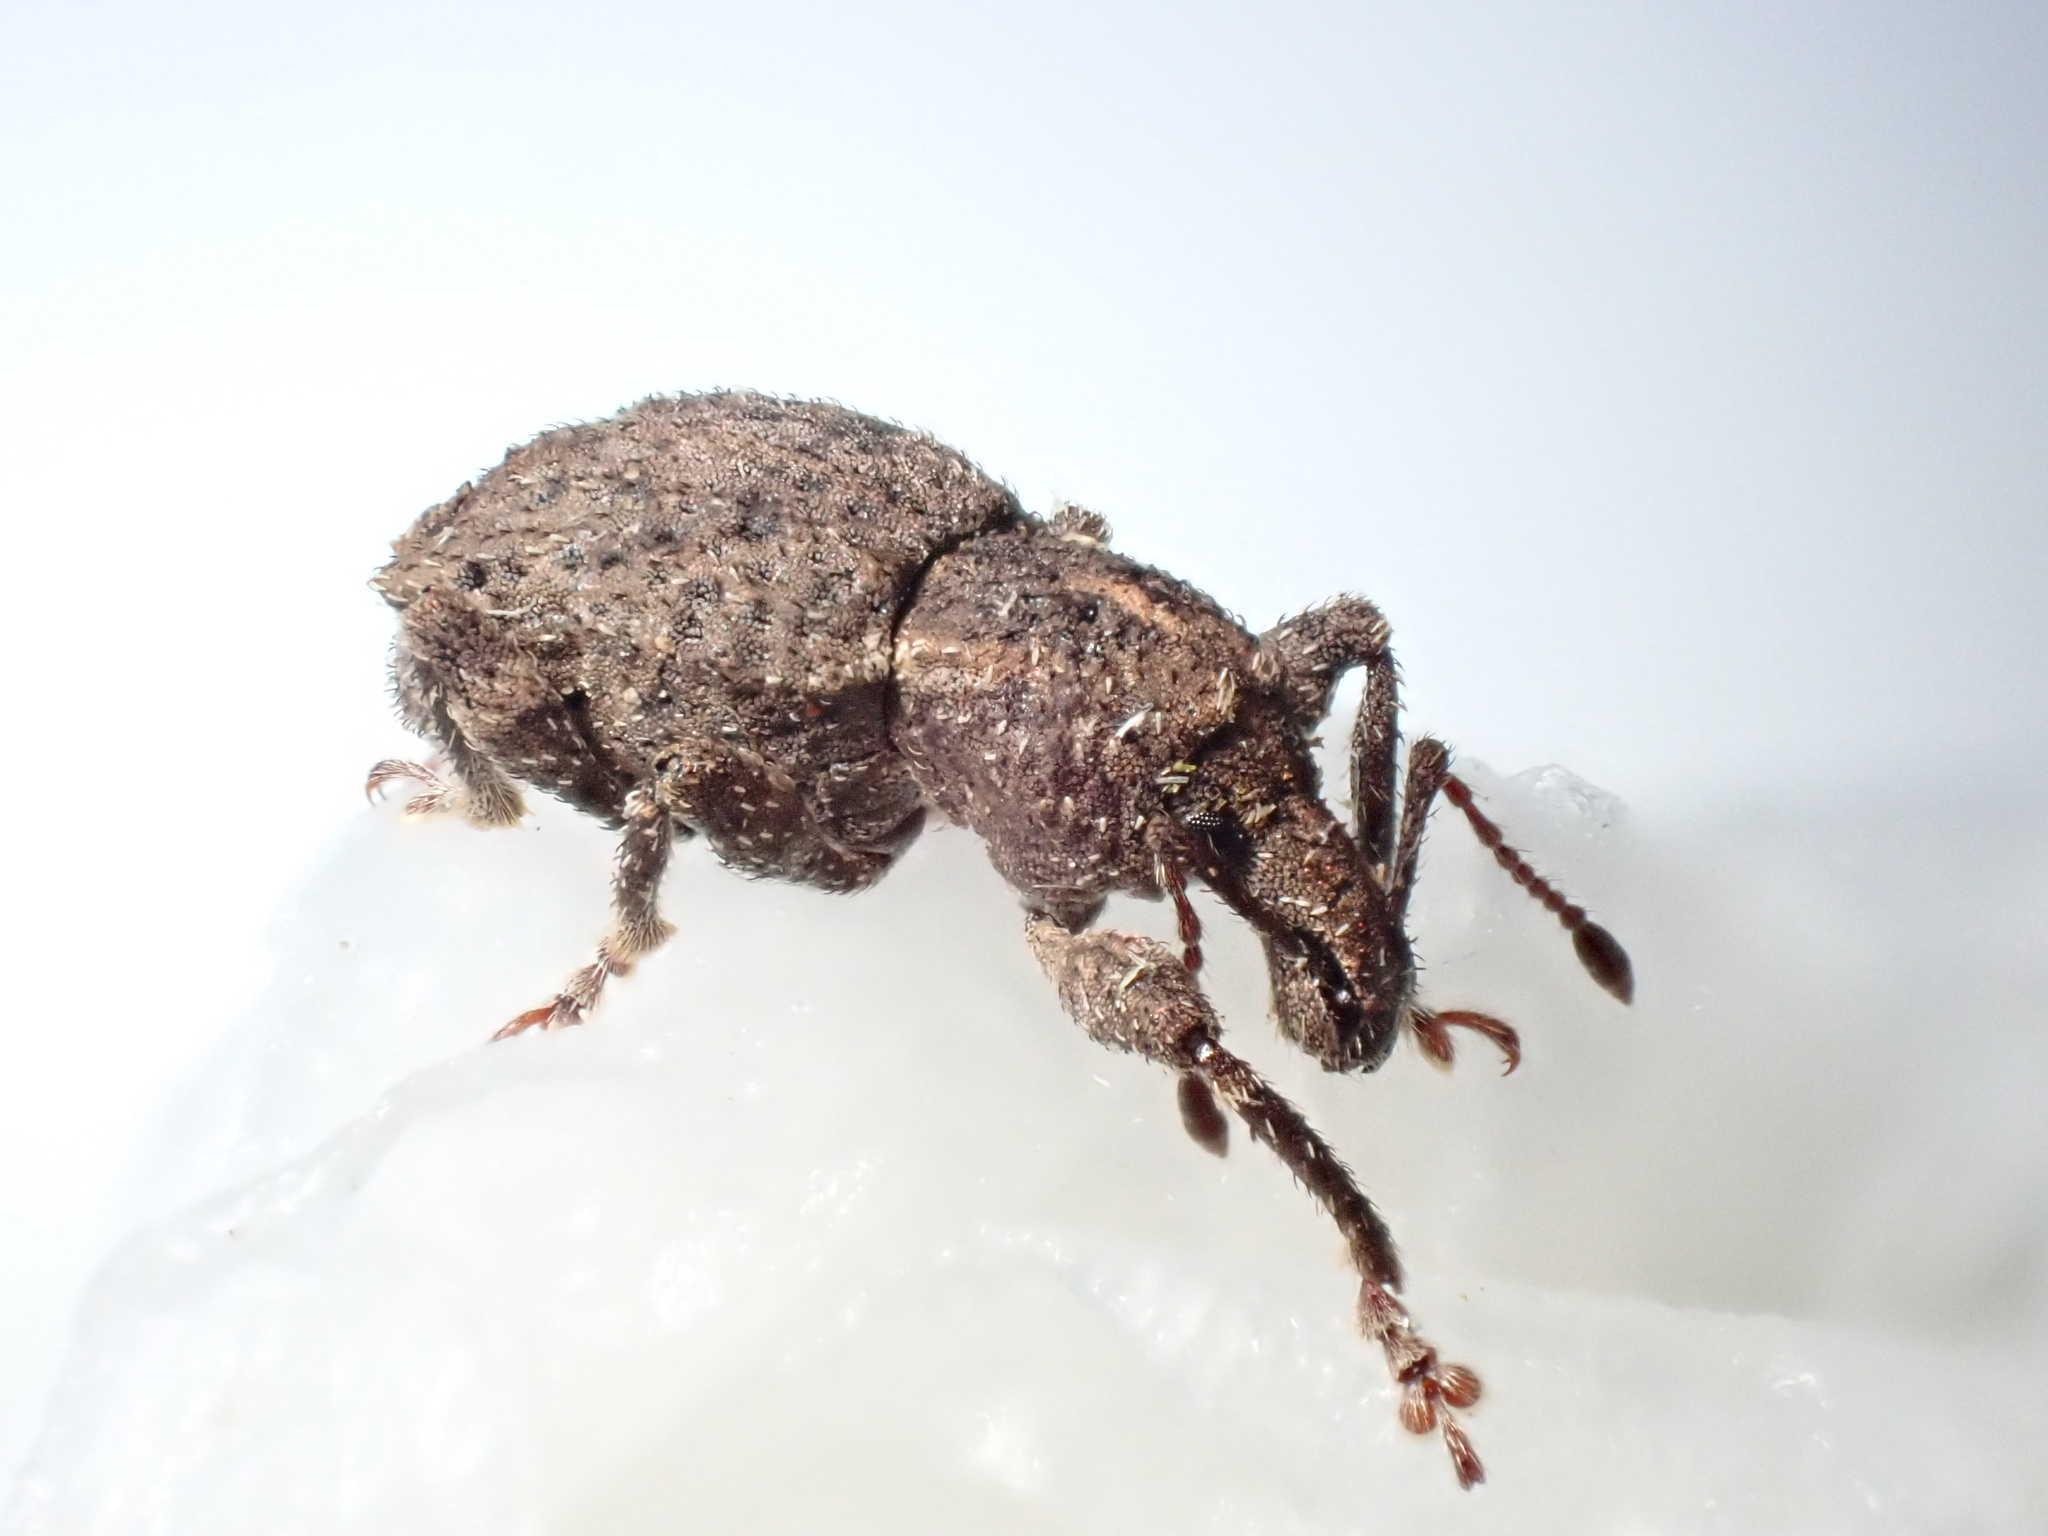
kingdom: Animalia
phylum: Arthropoda
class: Insecta
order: Coleoptera
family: Curculionidae
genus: Inophloeus
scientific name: Inophloeus villaris
